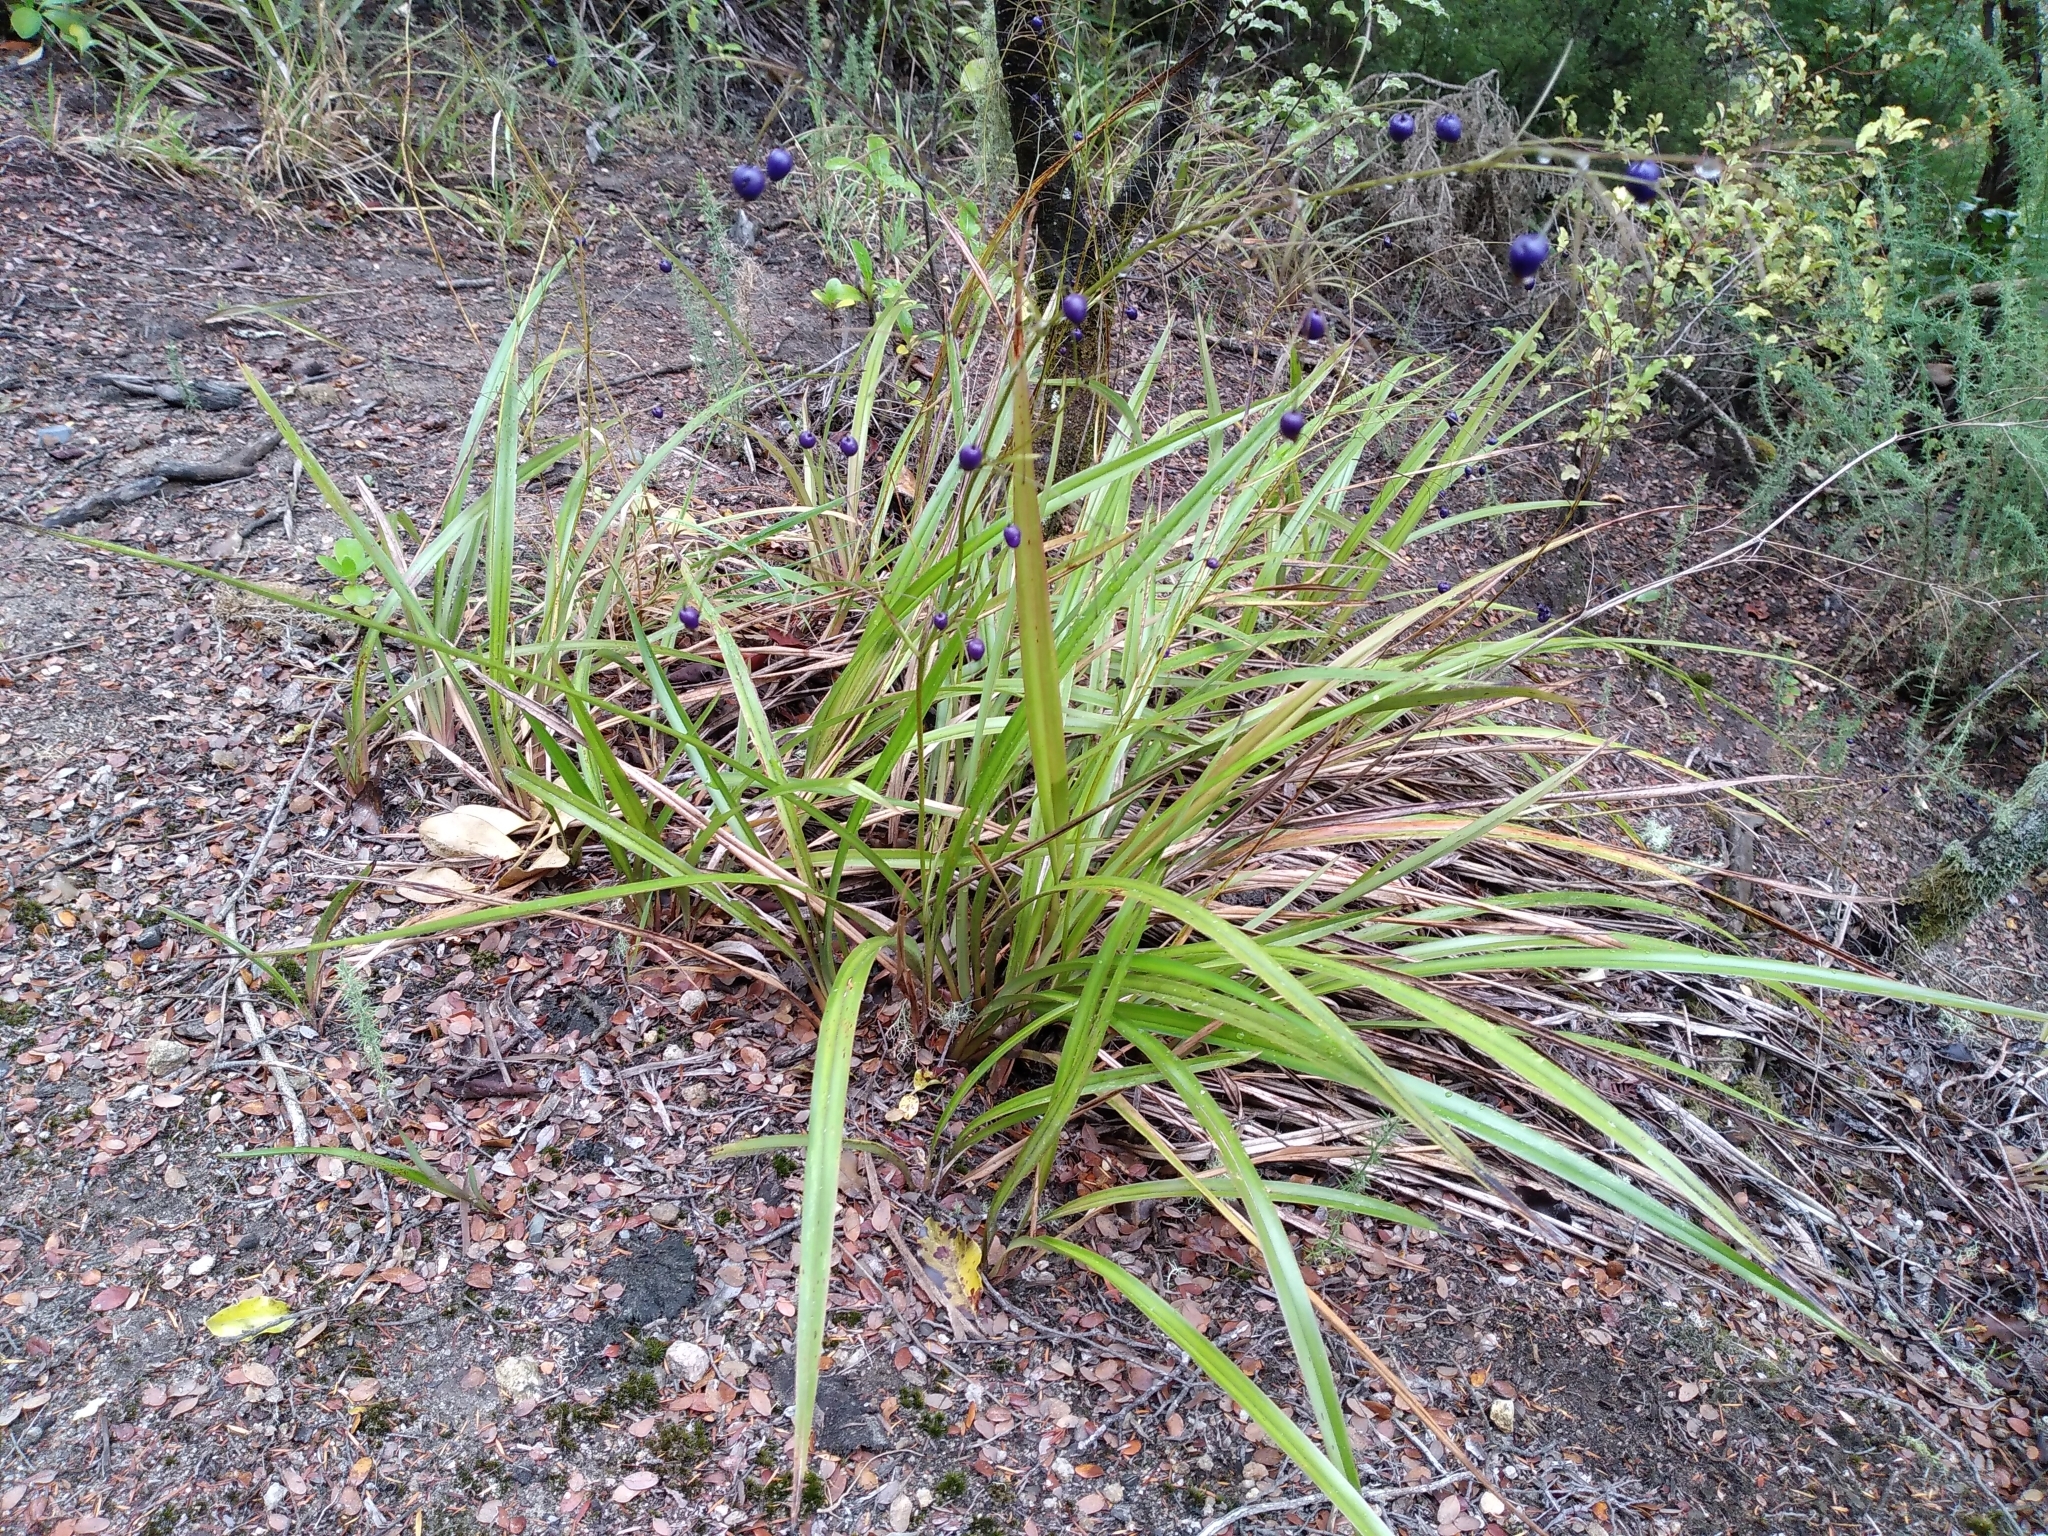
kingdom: Plantae
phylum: Tracheophyta
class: Liliopsida
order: Asparagales
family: Asphodelaceae
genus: Dianella
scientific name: Dianella nigra
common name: New zealand-blueberry
